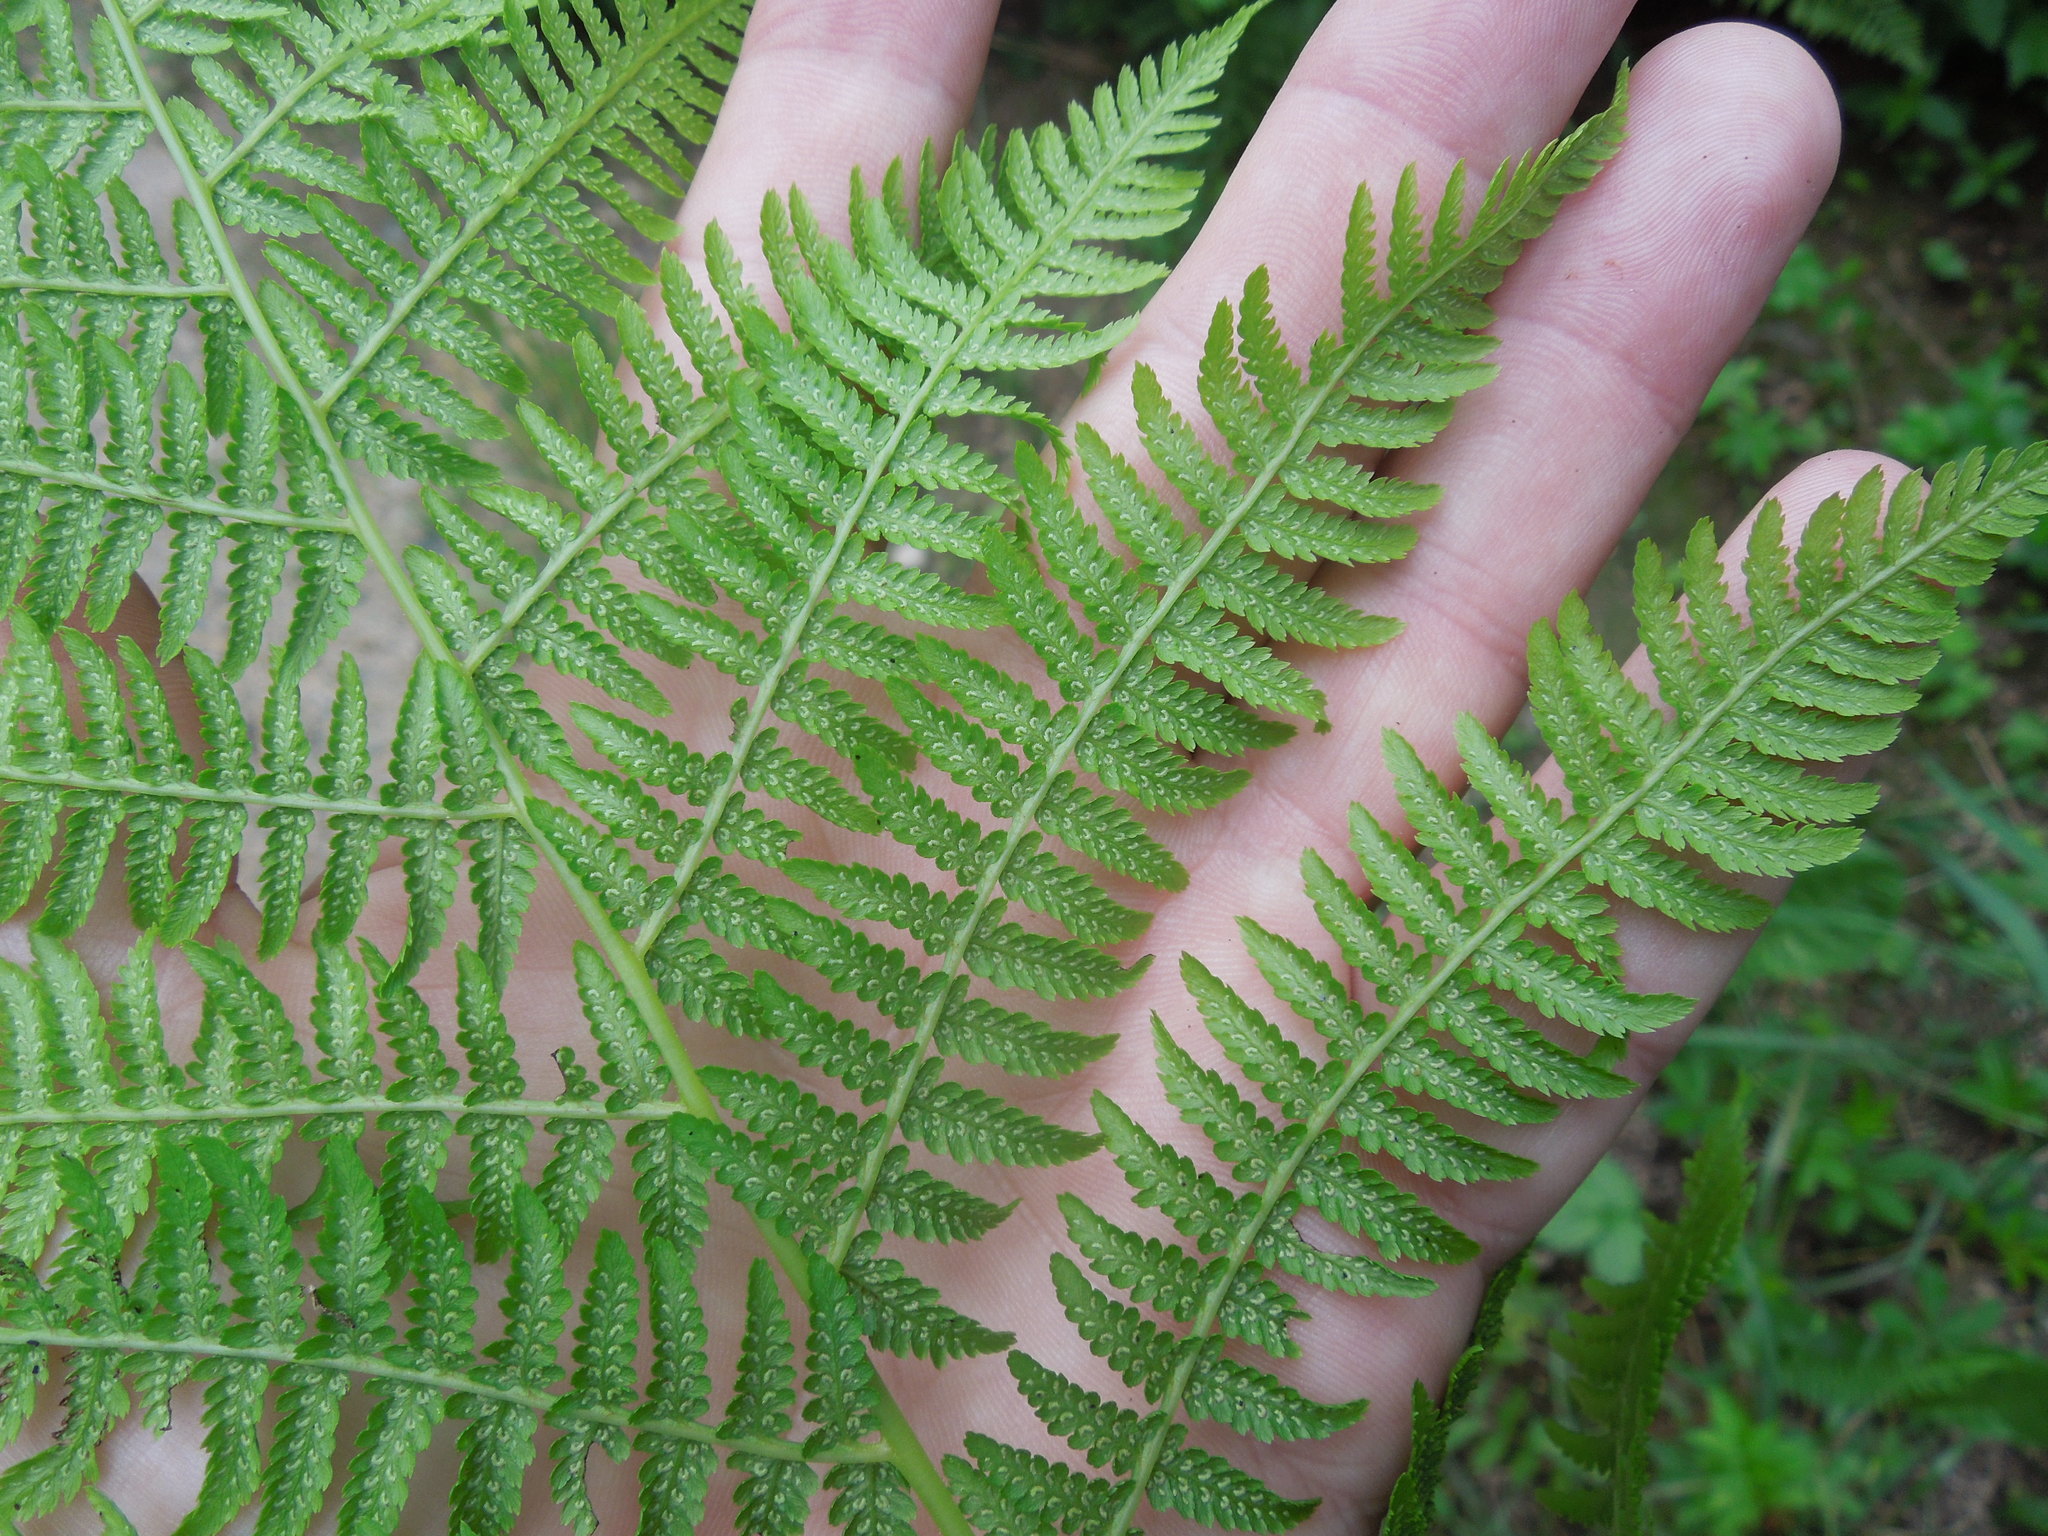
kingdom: Plantae
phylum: Tracheophyta
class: Polypodiopsida
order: Polypodiales
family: Athyriaceae
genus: Athyrium
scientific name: Athyrium angustum
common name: Northern lady fern
